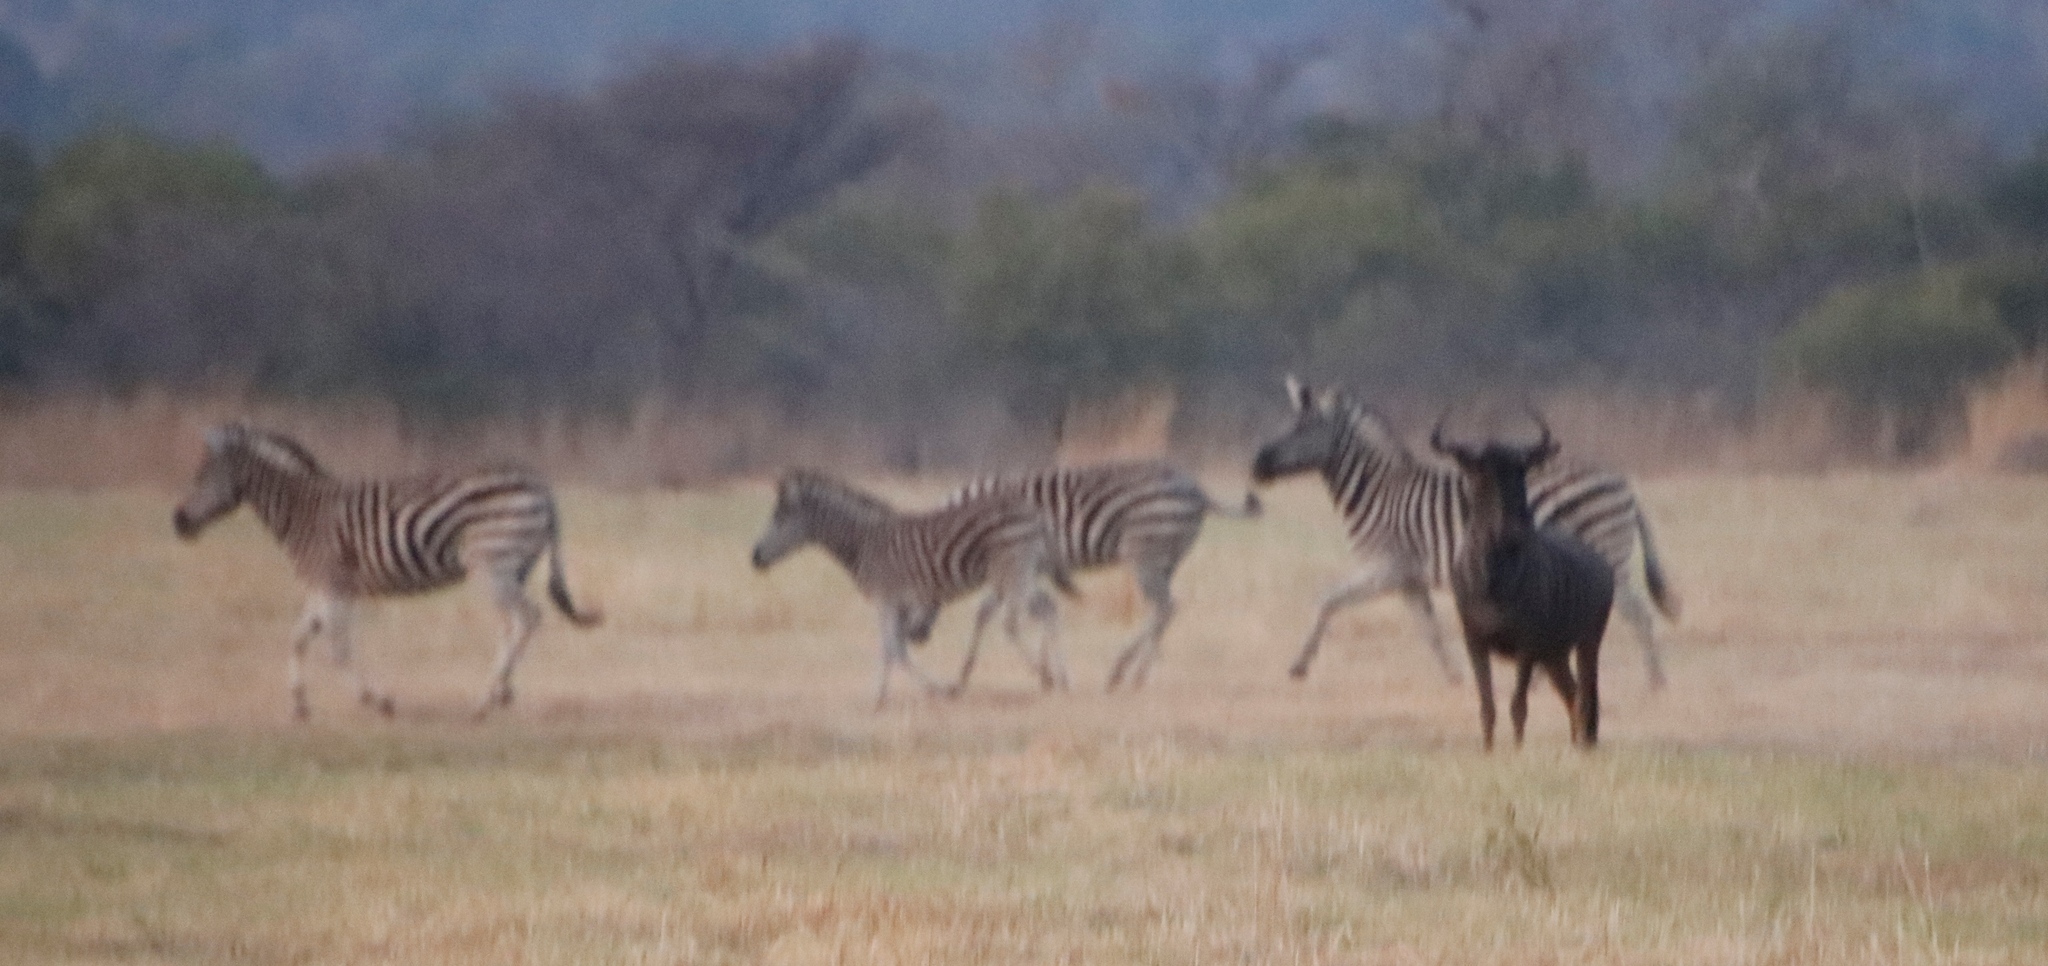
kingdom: Animalia
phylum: Chordata
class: Mammalia
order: Artiodactyla
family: Bovidae
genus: Connochaetes
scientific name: Connochaetes taurinus
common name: Blue wildebeest
